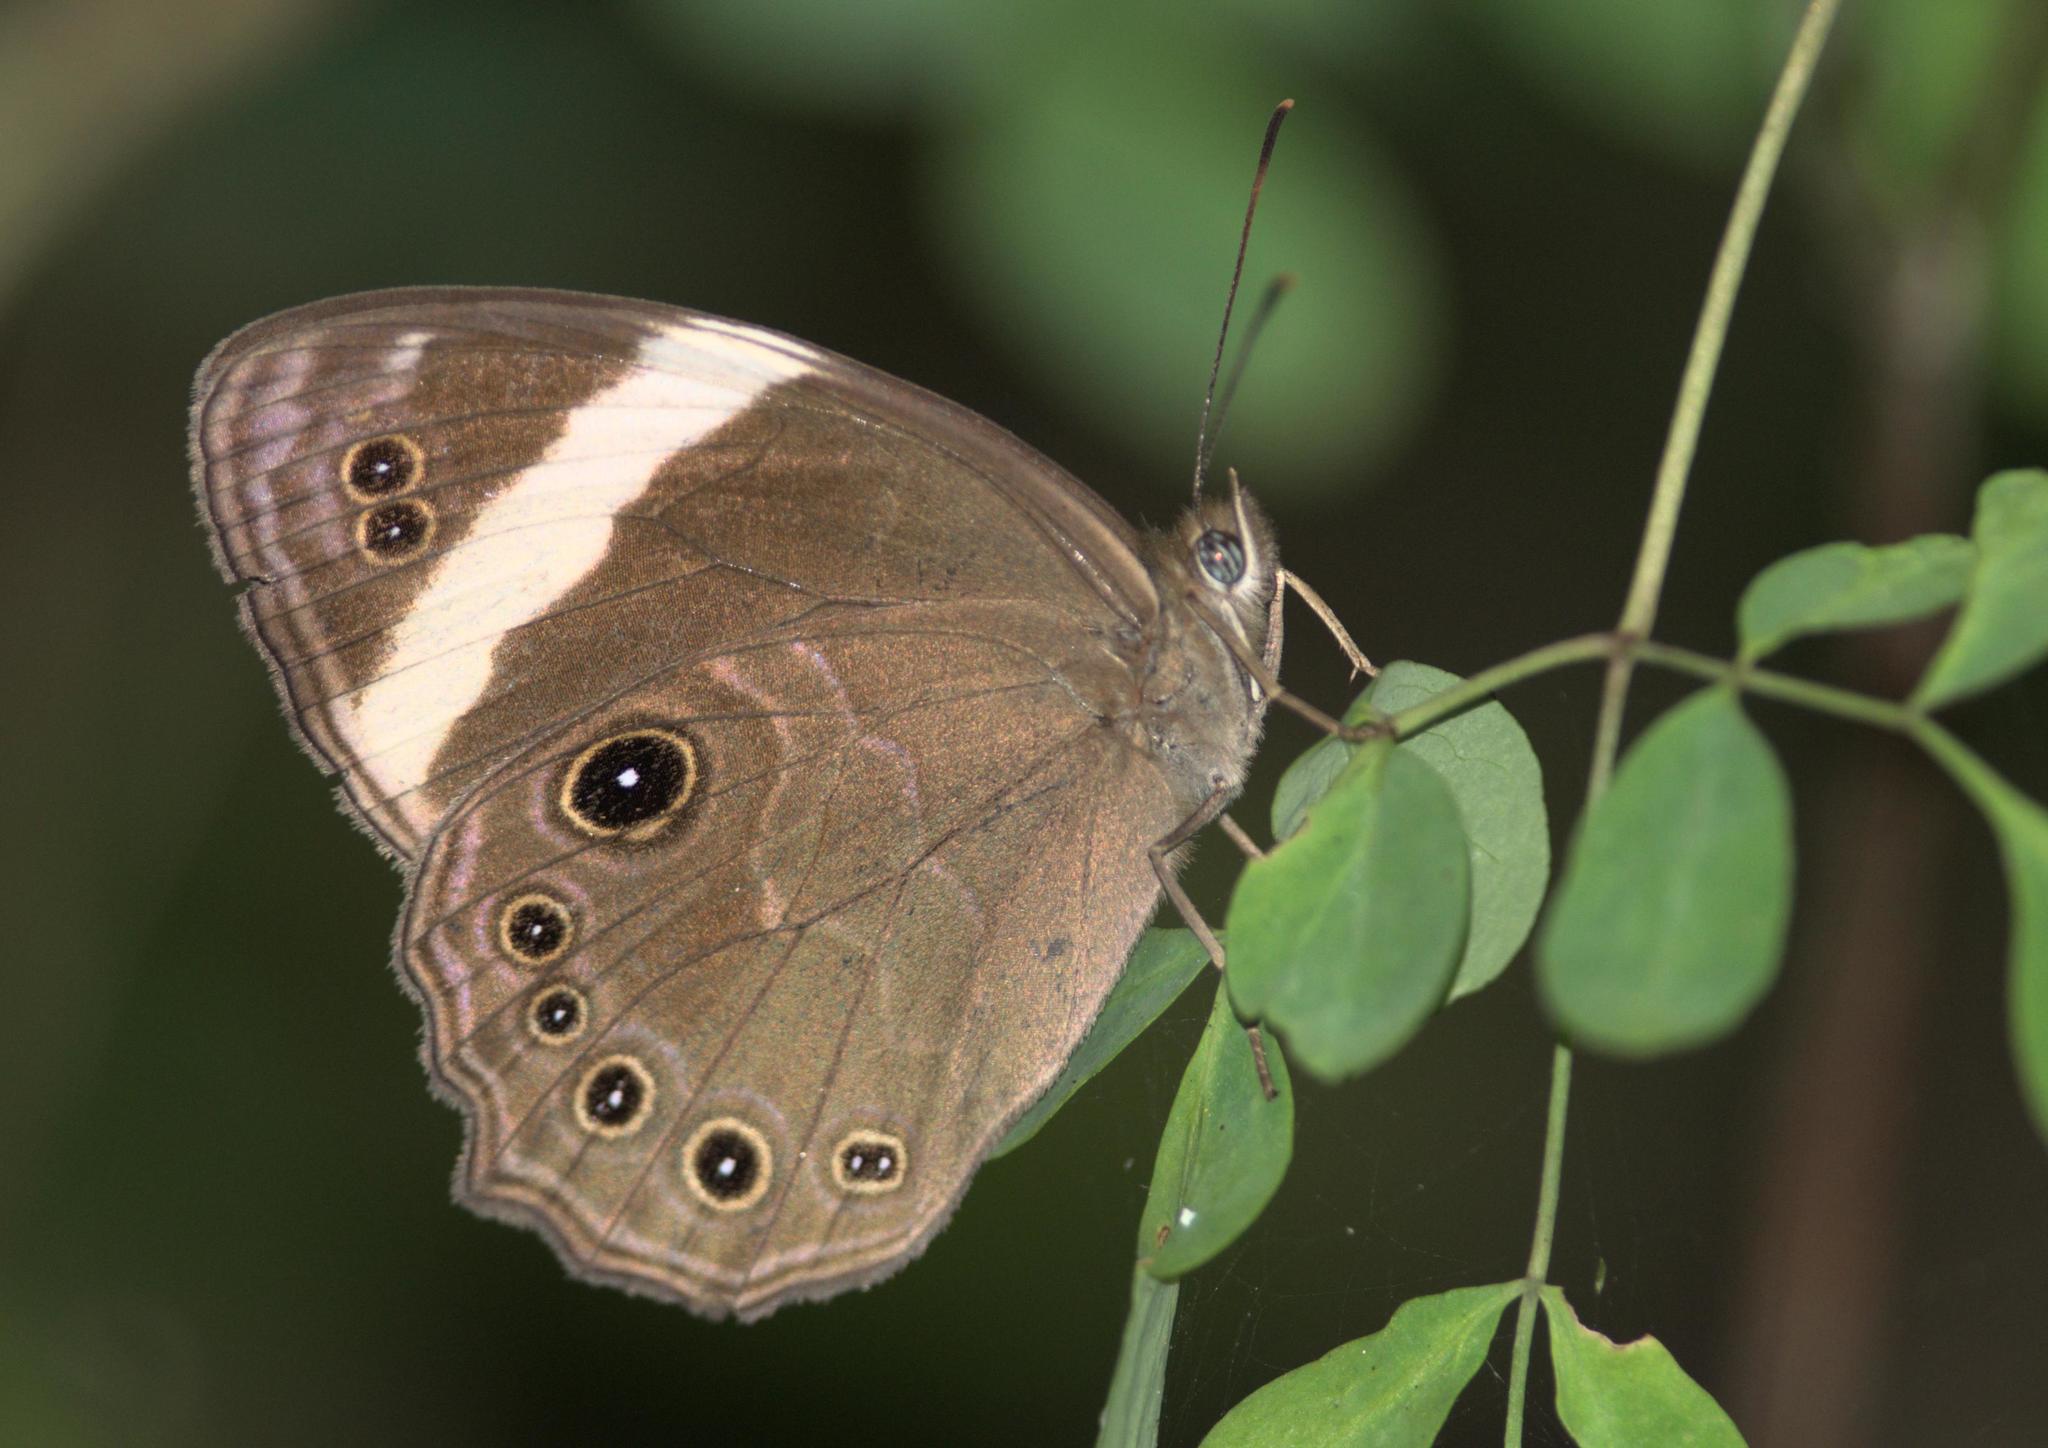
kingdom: Animalia
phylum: Arthropoda
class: Insecta
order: Lepidoptera
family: Nymphalidae
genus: Lethe
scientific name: Lethe verma
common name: Straight-banded treebrown
